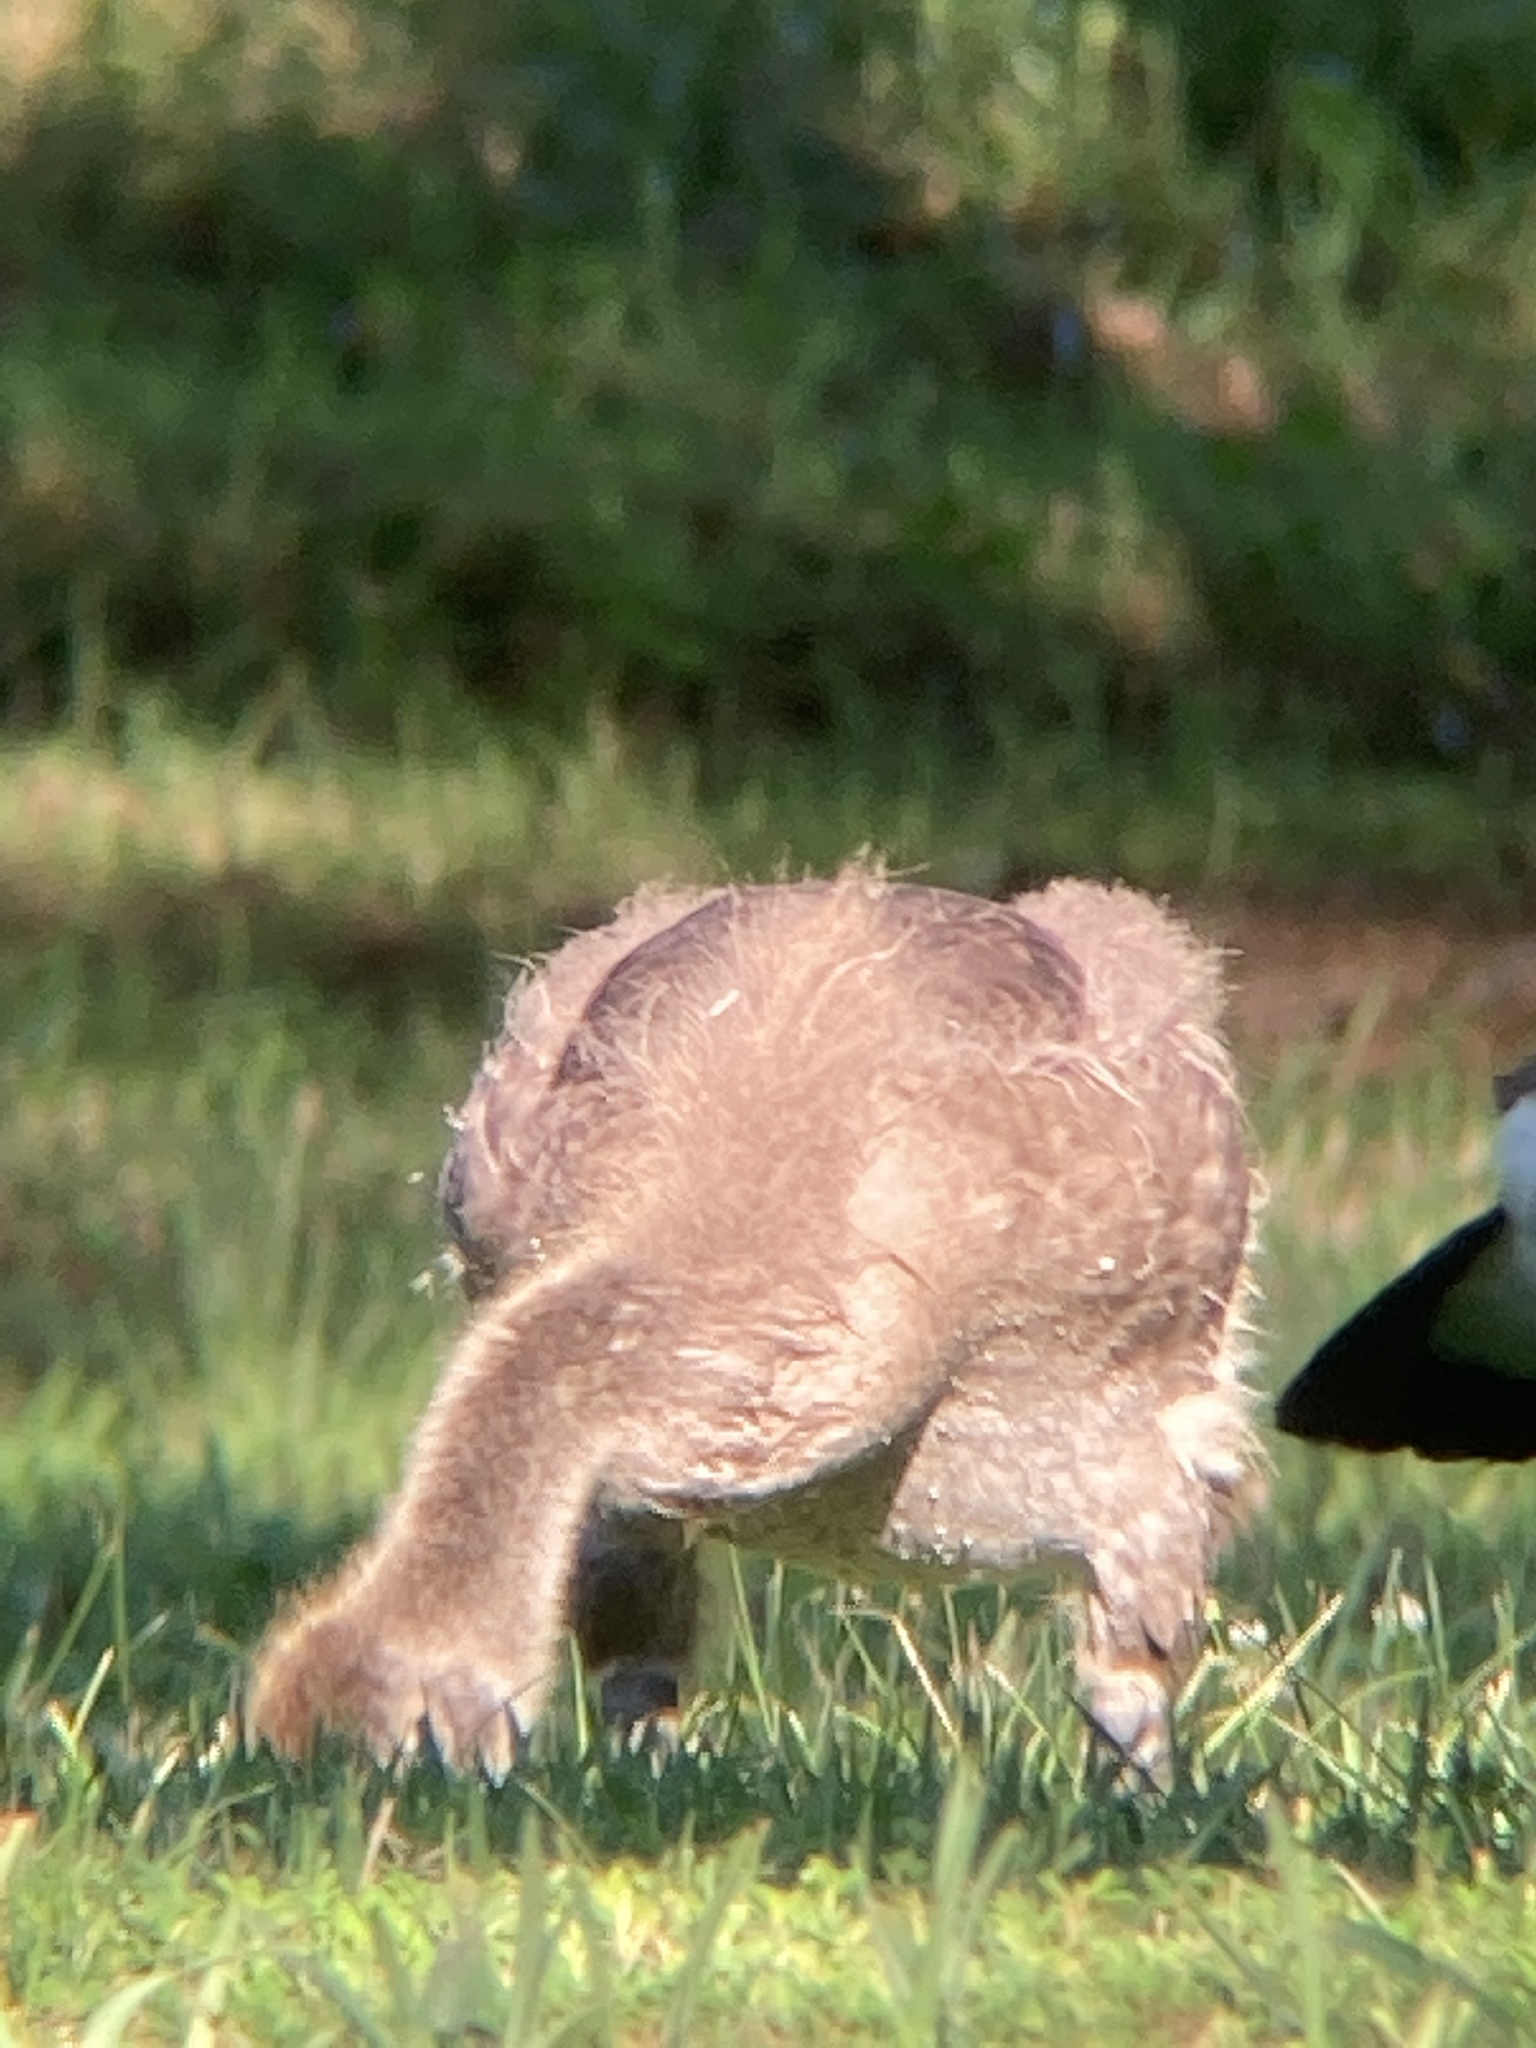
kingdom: Animalia
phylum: Chordata
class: Aves
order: Anseriformes
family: Anatidae
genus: Branta
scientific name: Branta canadensis
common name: Canada goose
